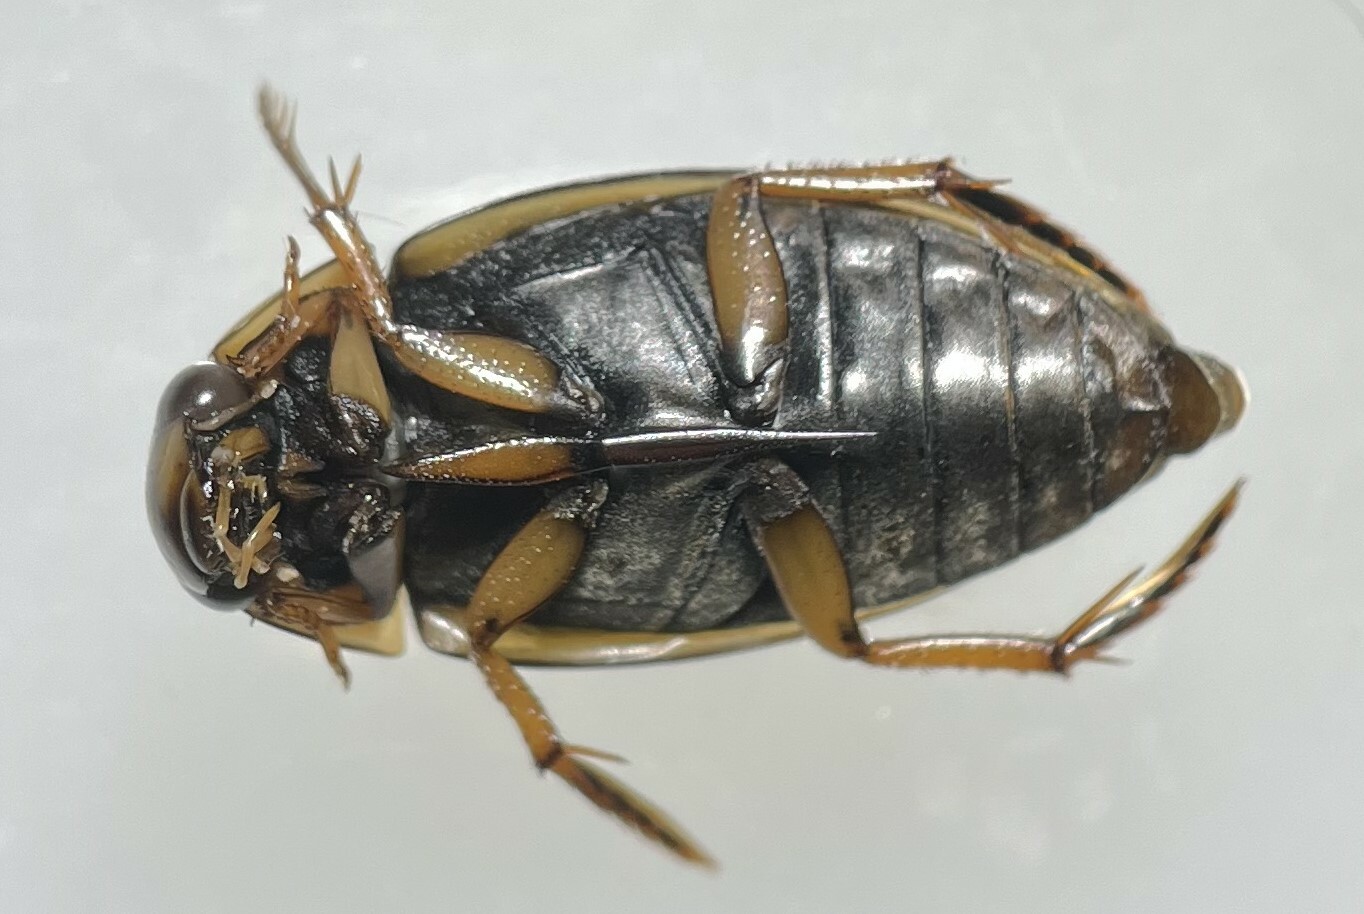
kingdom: Animalia
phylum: Arthropoda
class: Insecta
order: Coleoptera
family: Hydrophilidae
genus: Tropisternus
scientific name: Tropisternus lateralis
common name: Lateral-banded water scavenger beetle
